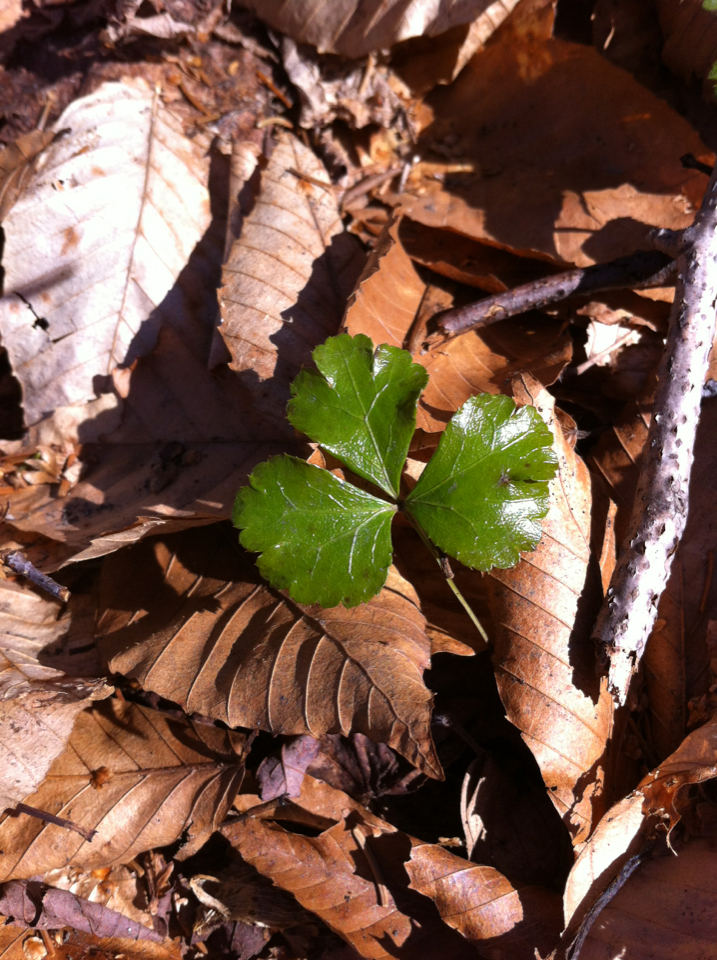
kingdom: Plantae
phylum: Tracheophyta
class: Magnoliopsida
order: Ranunculales
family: Ranunculaceae
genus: Coptis
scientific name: Coptis trifolia
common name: Canker-root
